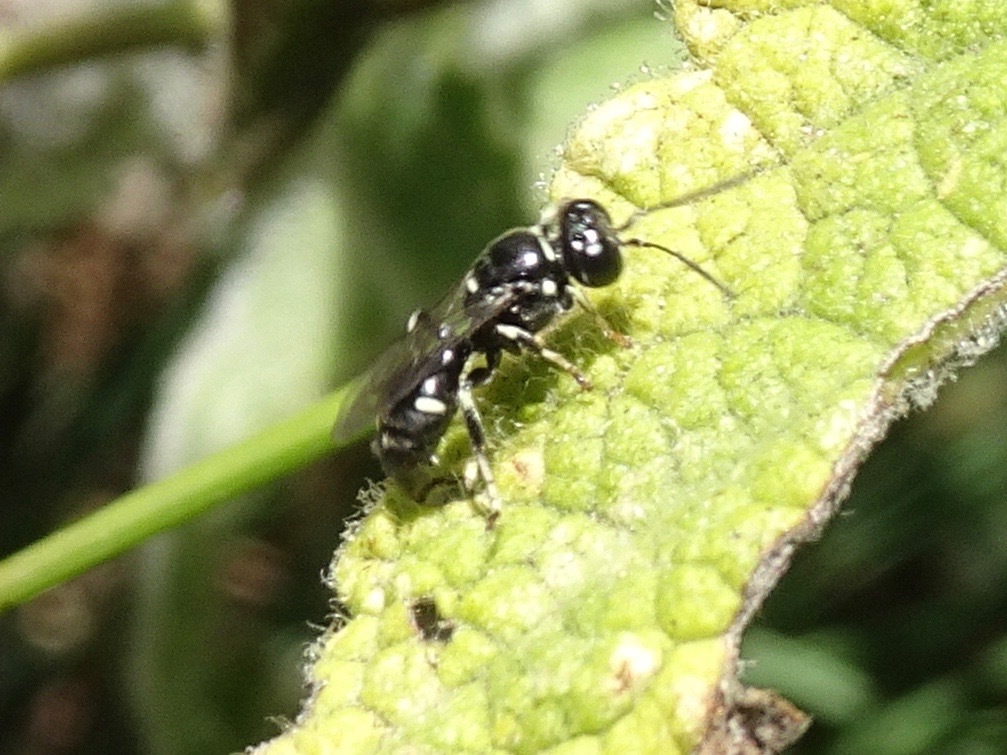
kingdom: Animalia
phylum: Arthropoda
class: Insecta
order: Hymenoptera
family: Crabronidae
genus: Clitemnestra
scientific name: Clitemnestra bipunctata
